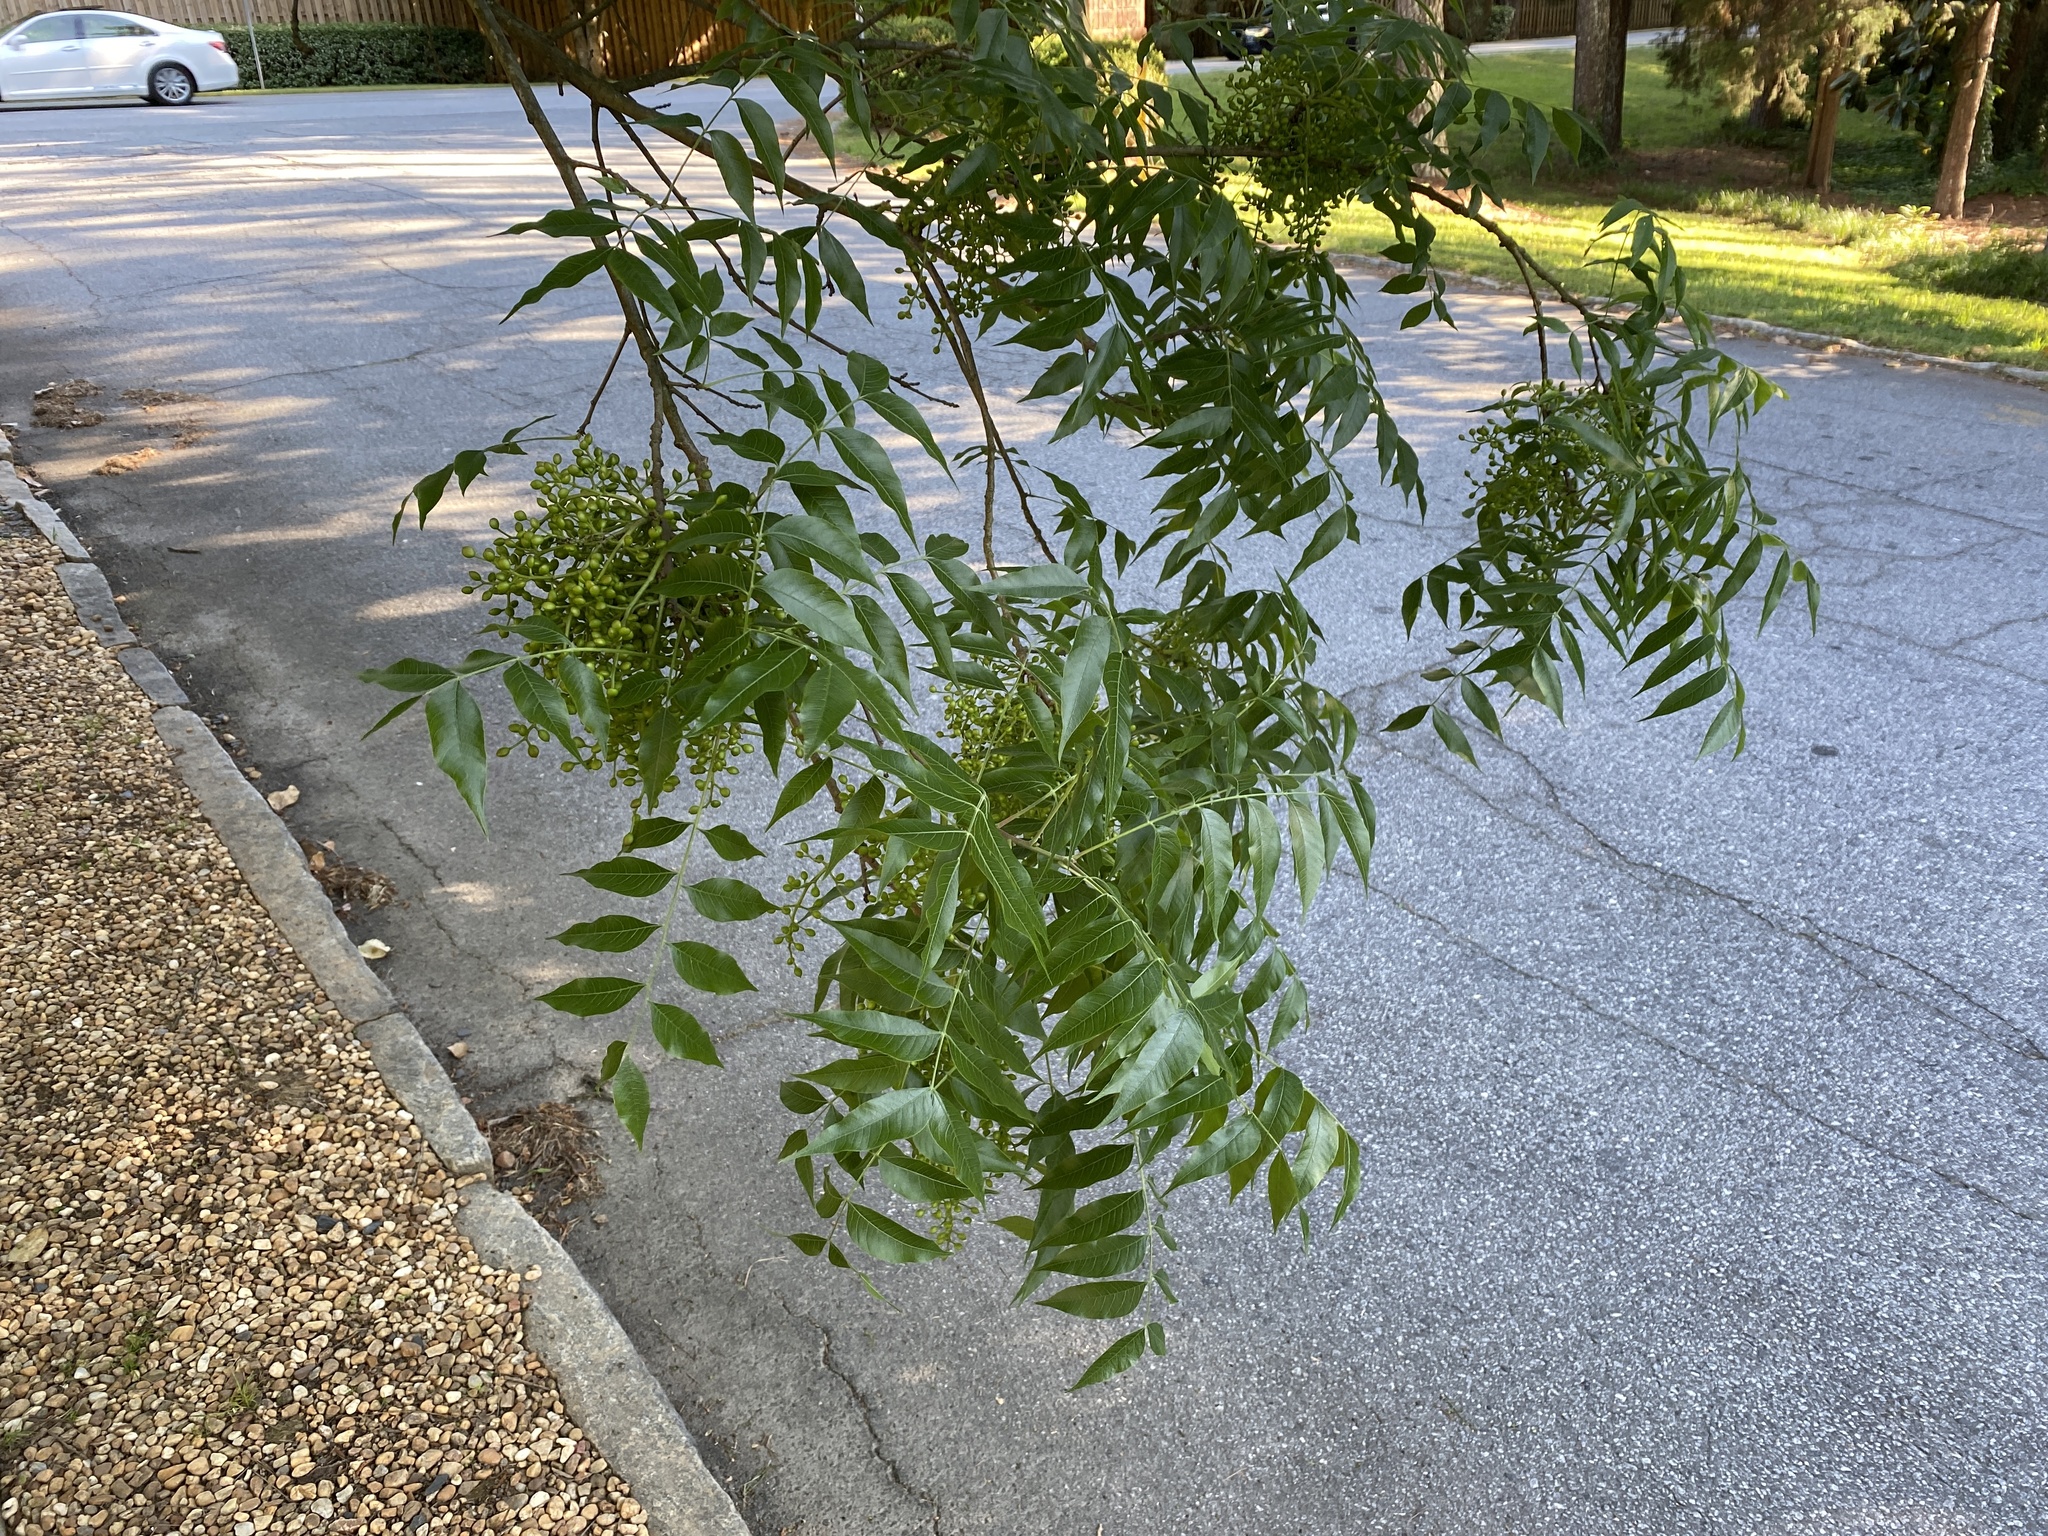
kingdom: Plantae
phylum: Tracheophyta
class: Magnoliopsida
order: Sapindales
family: Anacardiaceae
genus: Pistacia
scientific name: Pistacia chinensis
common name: Chinese pistache
